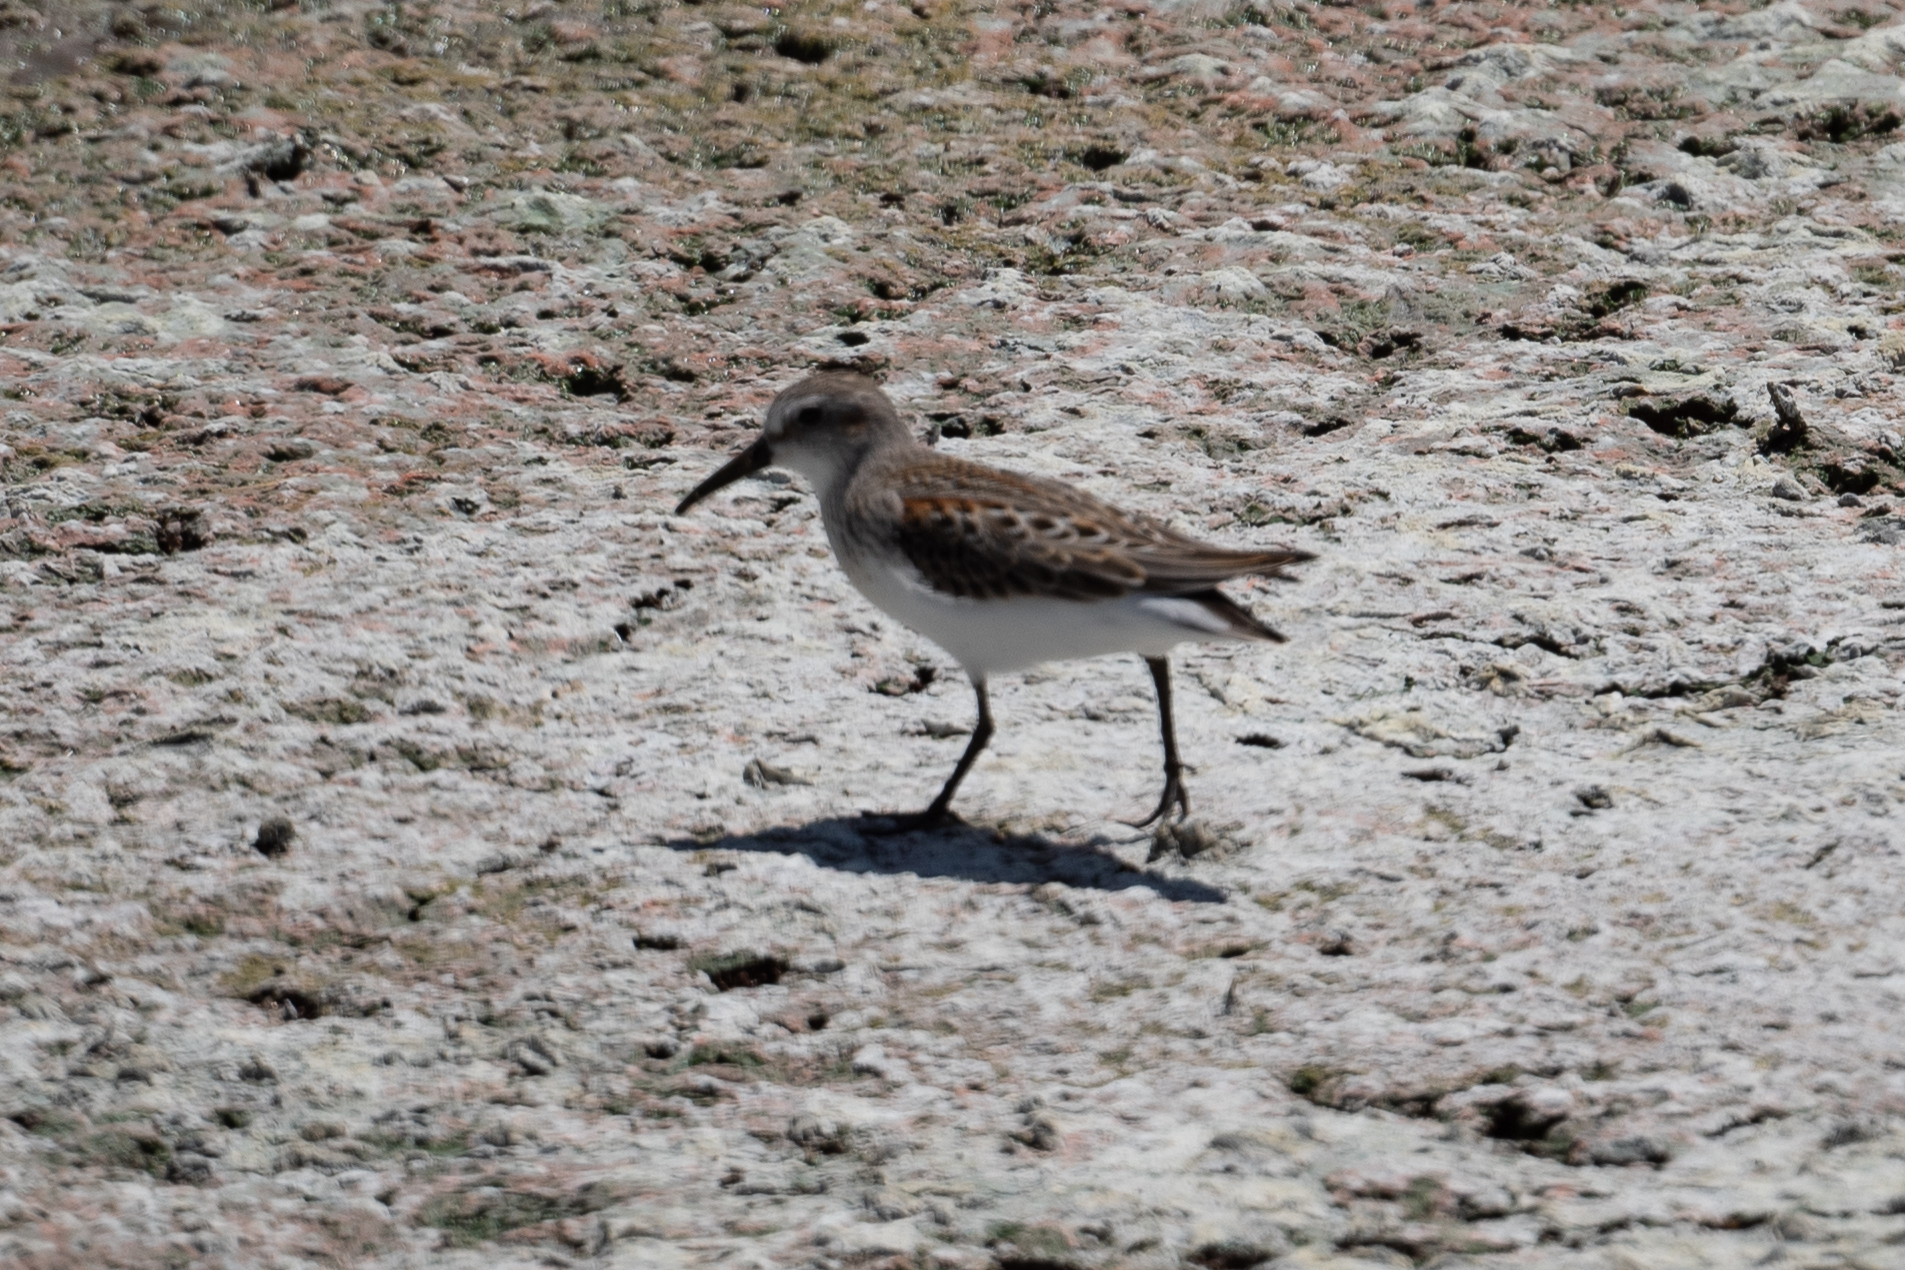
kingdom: Animalia
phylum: Chordata
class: Aves
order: Charadriiformes
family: Scolopacidae
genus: Calidris
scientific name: Calidris mauri
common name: Western sandpiper
